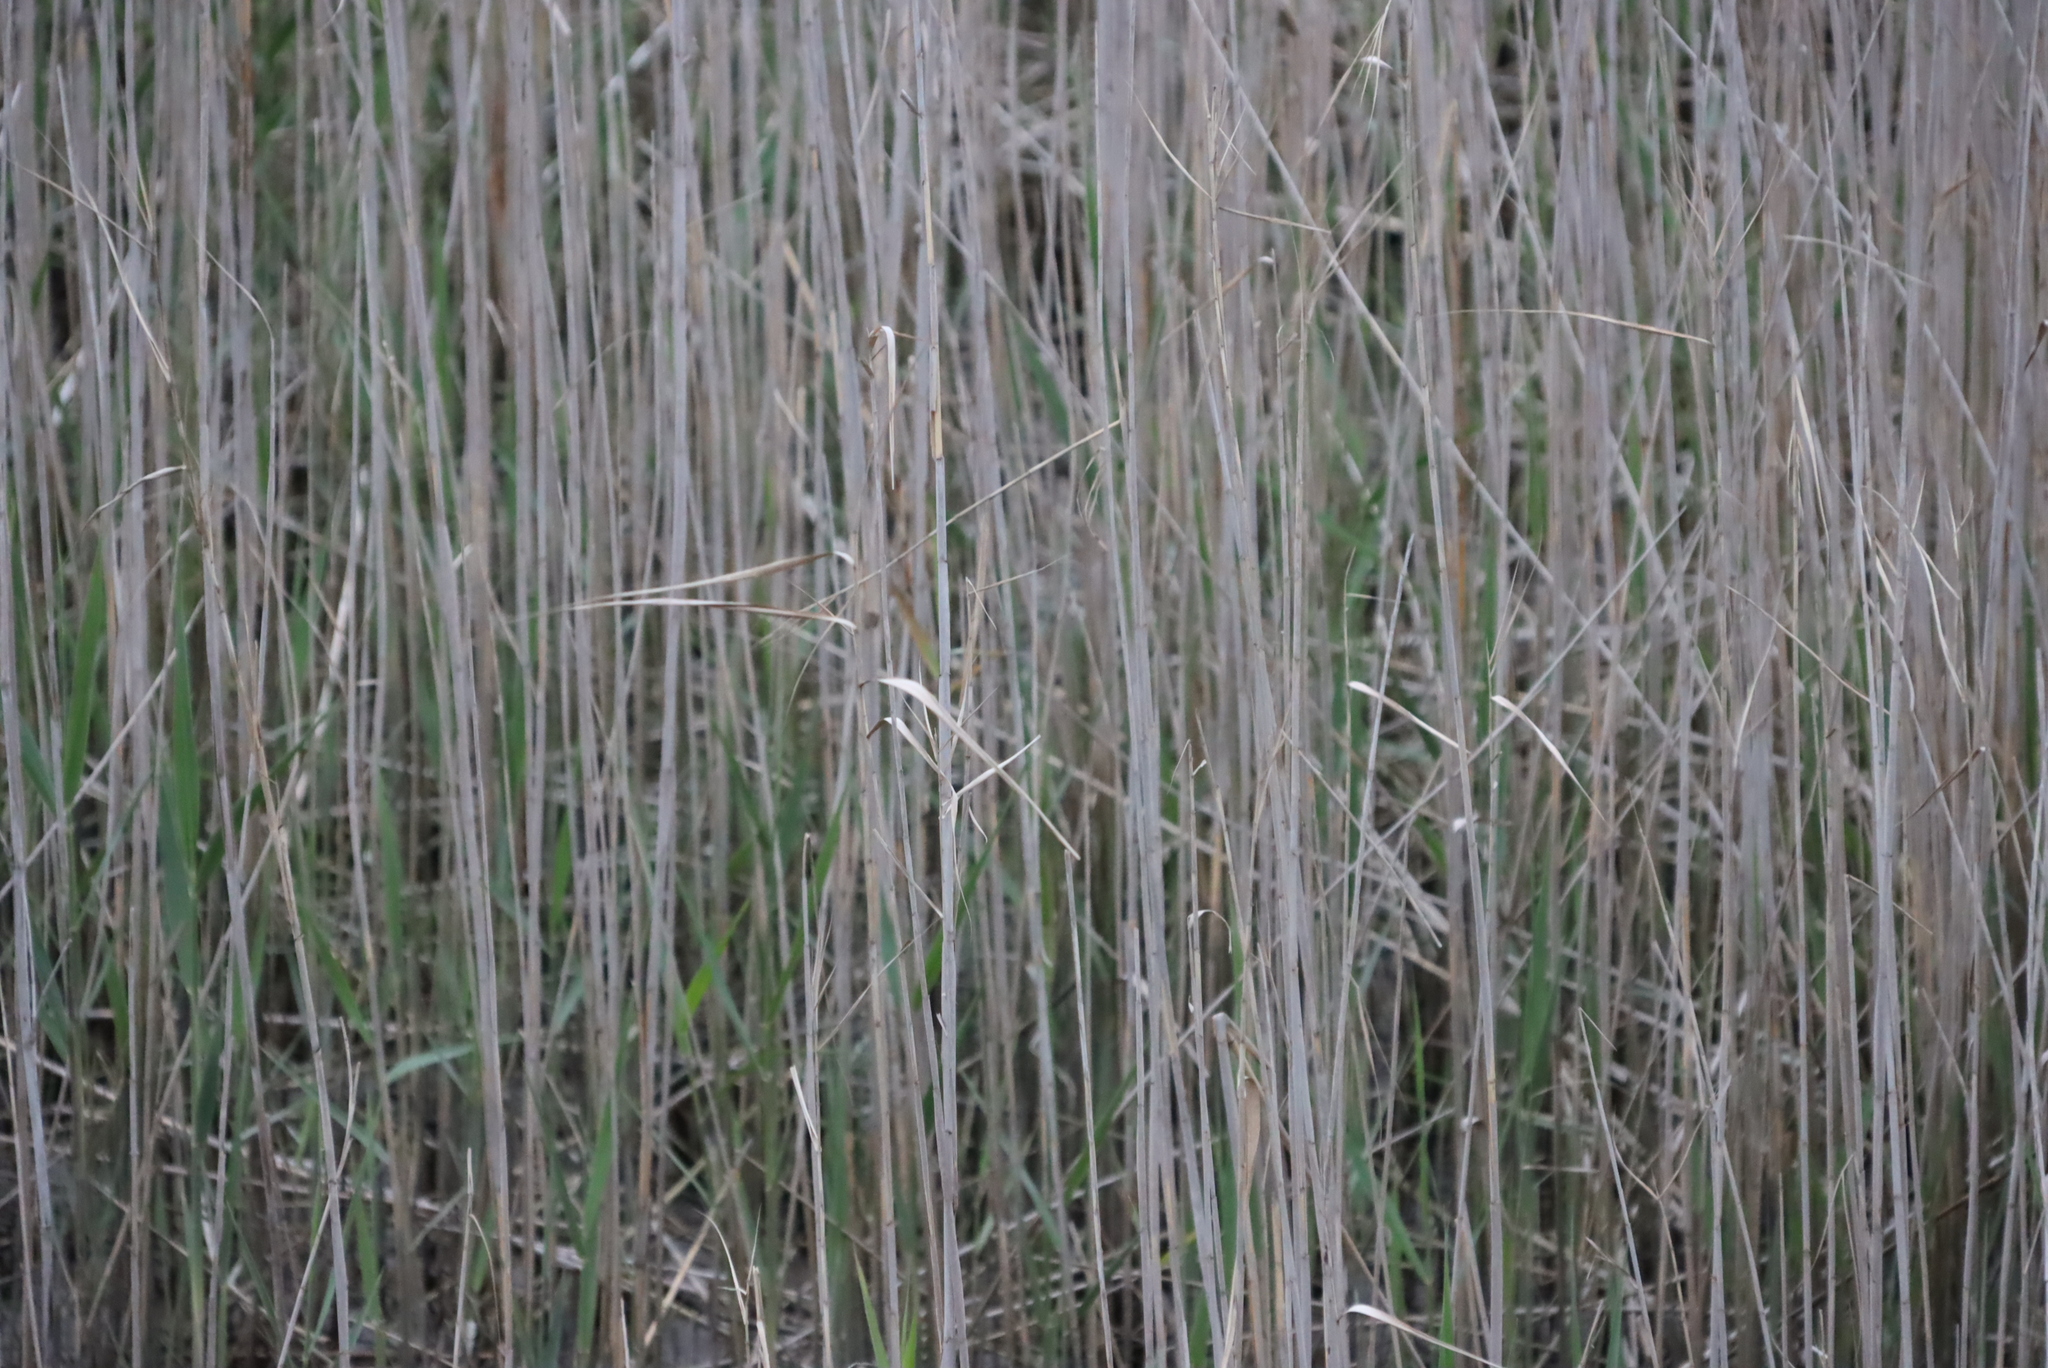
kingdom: Plantae
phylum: Tracheophyta
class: Liliopsida
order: Poales
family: Poaceae
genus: Phragmites
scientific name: Phragmites australis
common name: Common reed
